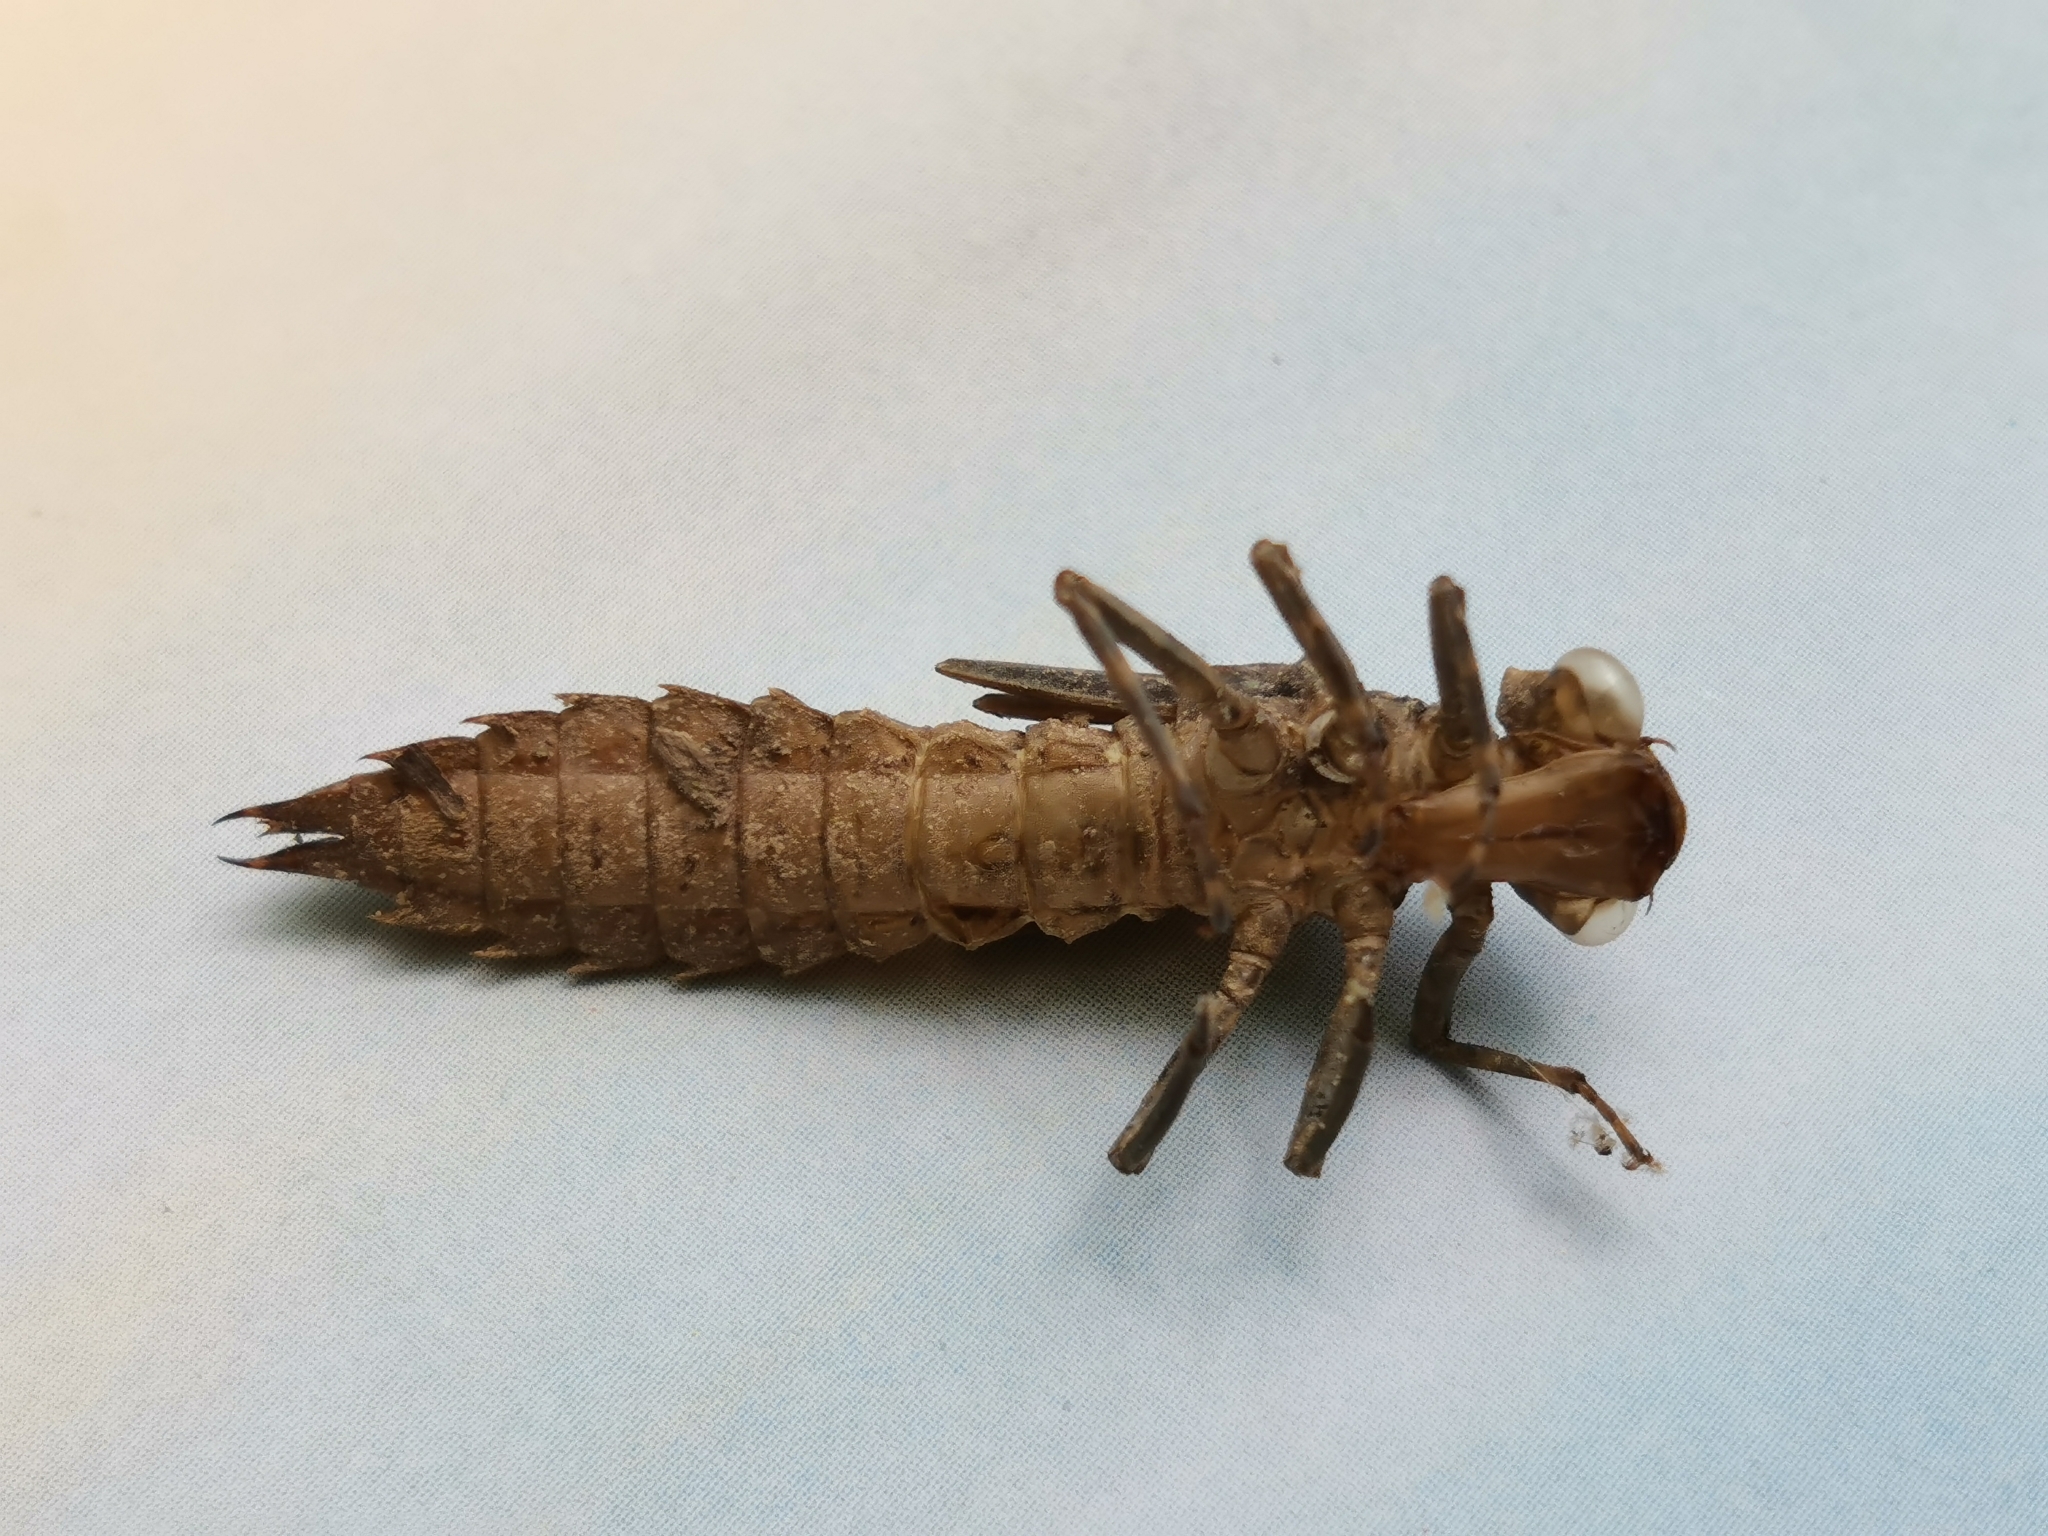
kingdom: Animalia
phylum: Arthropoda
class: Insecta
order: Odonata
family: Aeshnidae
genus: Boyeria
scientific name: Boyeria irene
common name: Western spectre
